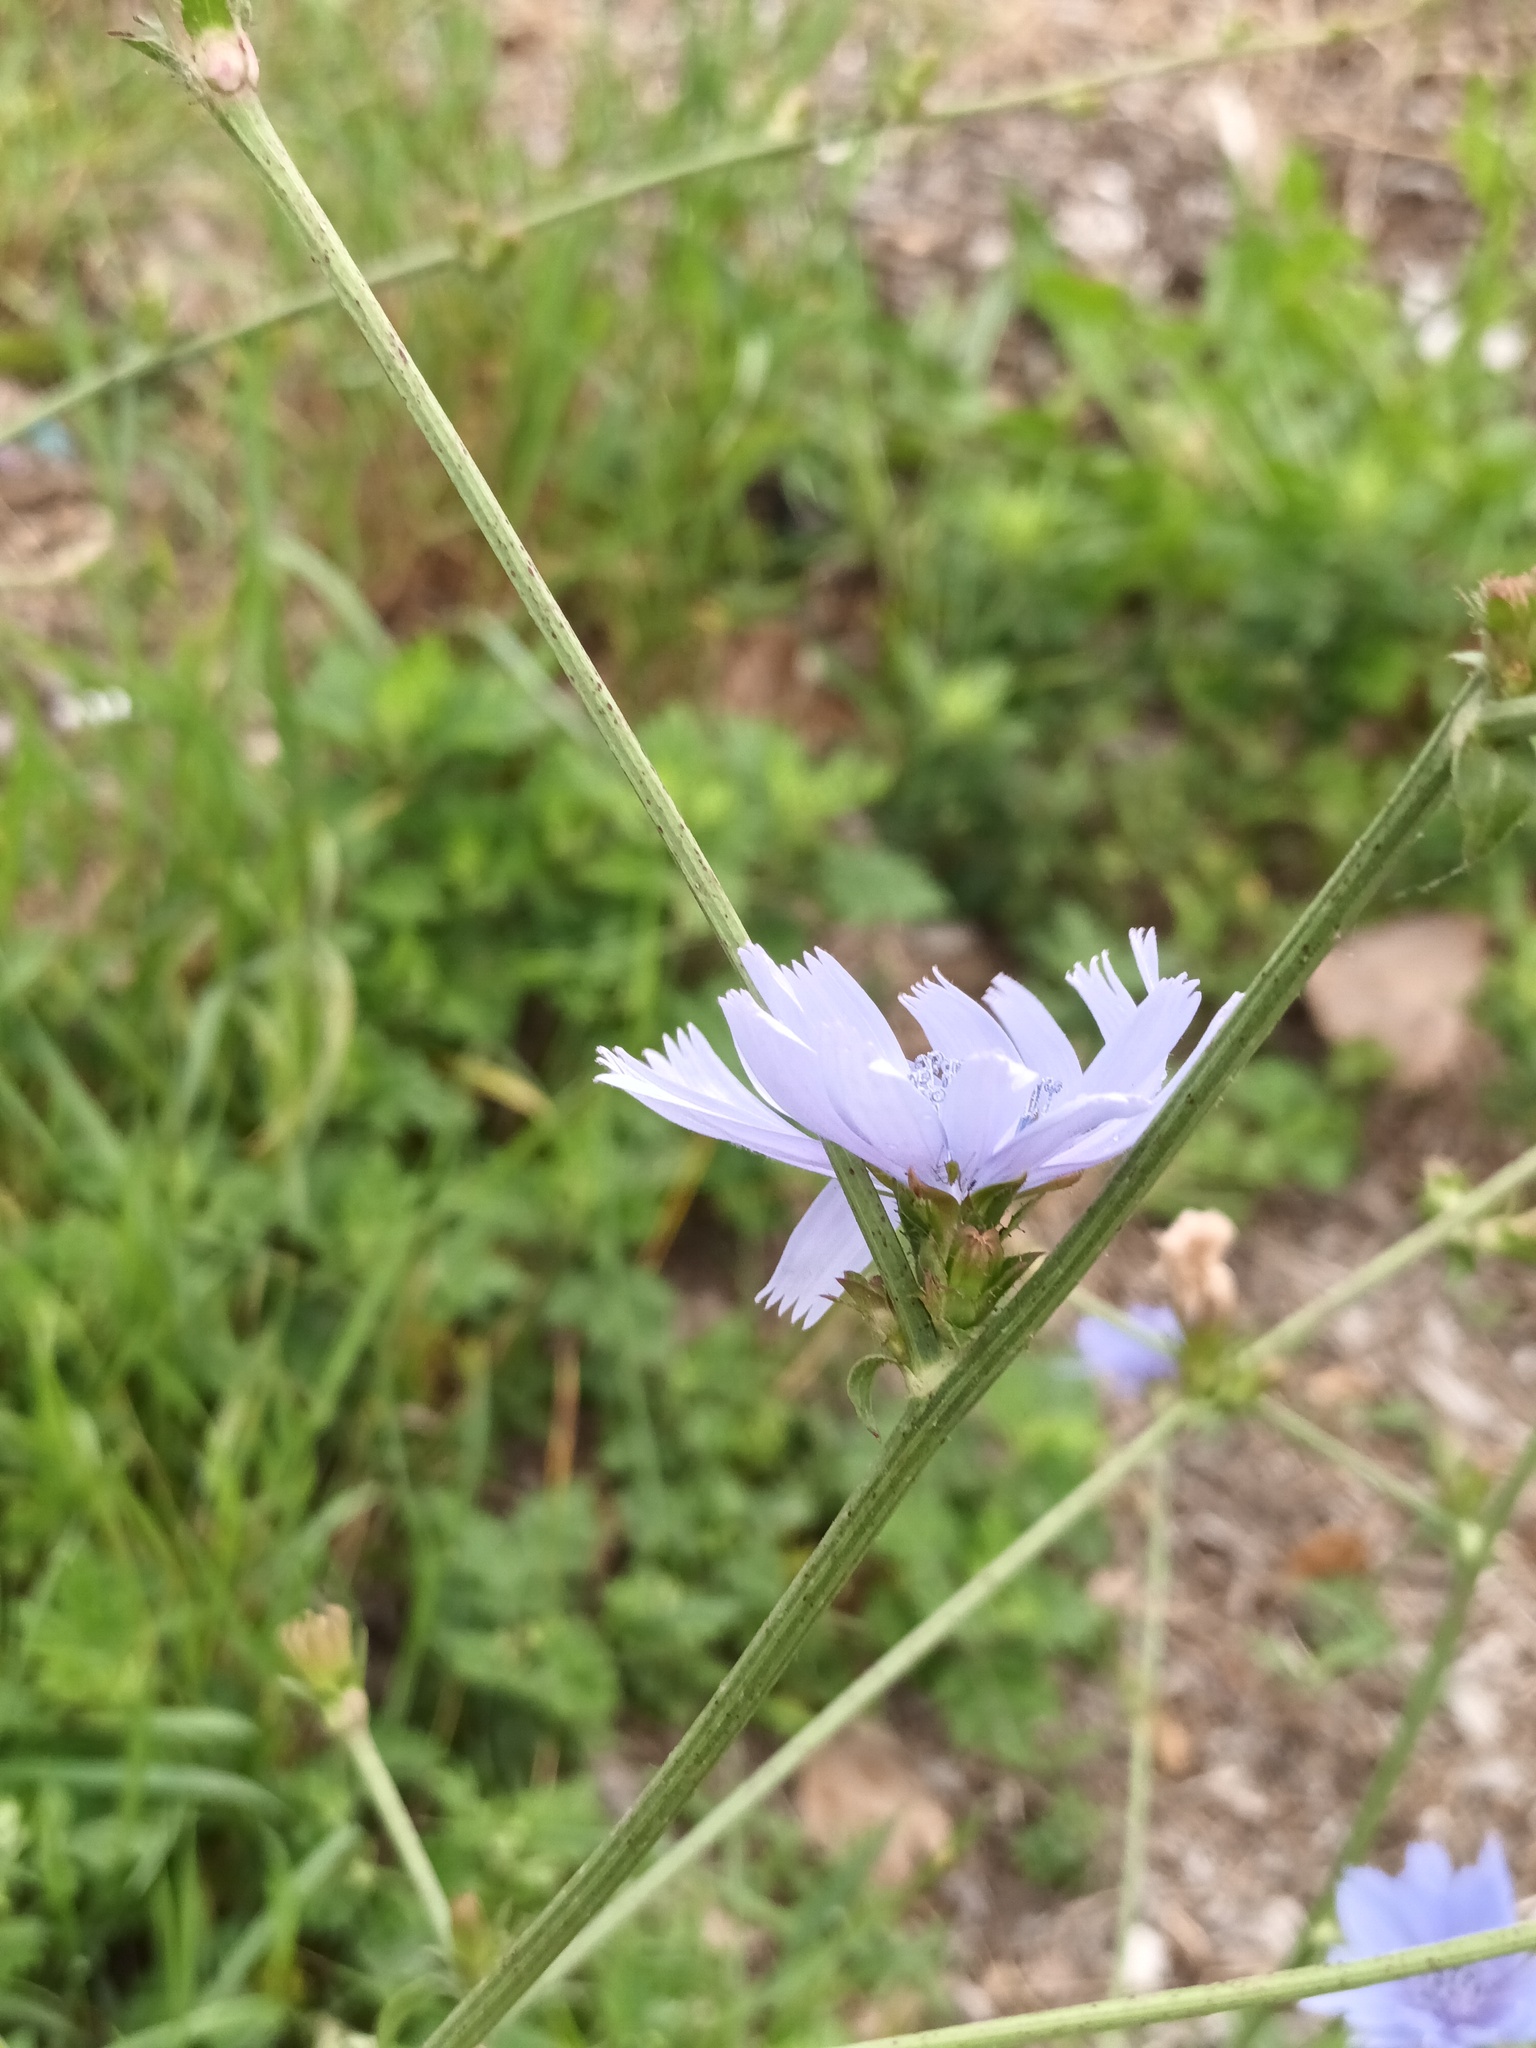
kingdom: Plantae
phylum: Tracheophyta
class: Magnoliopsida
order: Asterales
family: Asteraceae
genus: Cichorium
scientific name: Cichorium intybus
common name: Chicory
